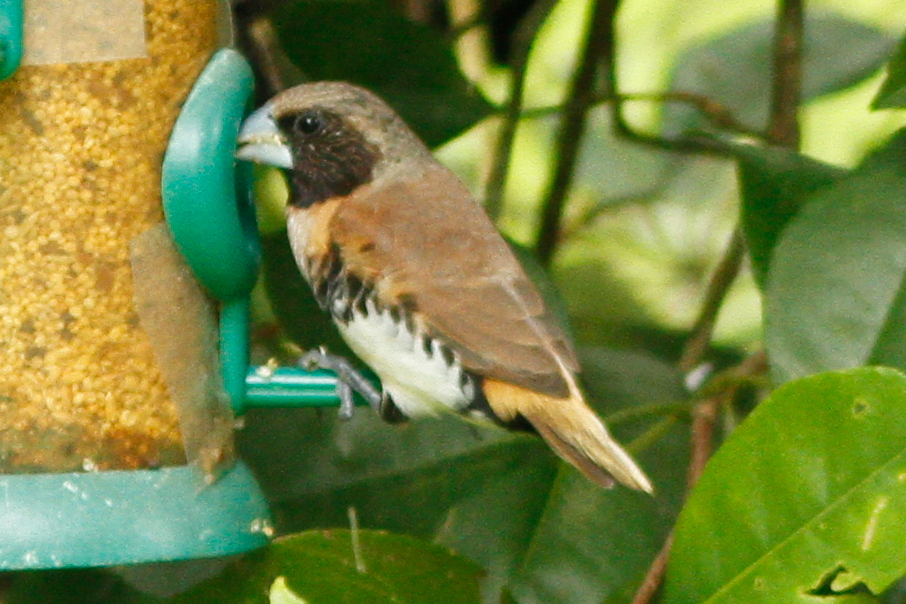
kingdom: Animalia
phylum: Chordata
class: Aves
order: Passeriformes
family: Estrildidae
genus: Lonchura
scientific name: Lonchura castaneothorax
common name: Chestnut-breasted mannikin
